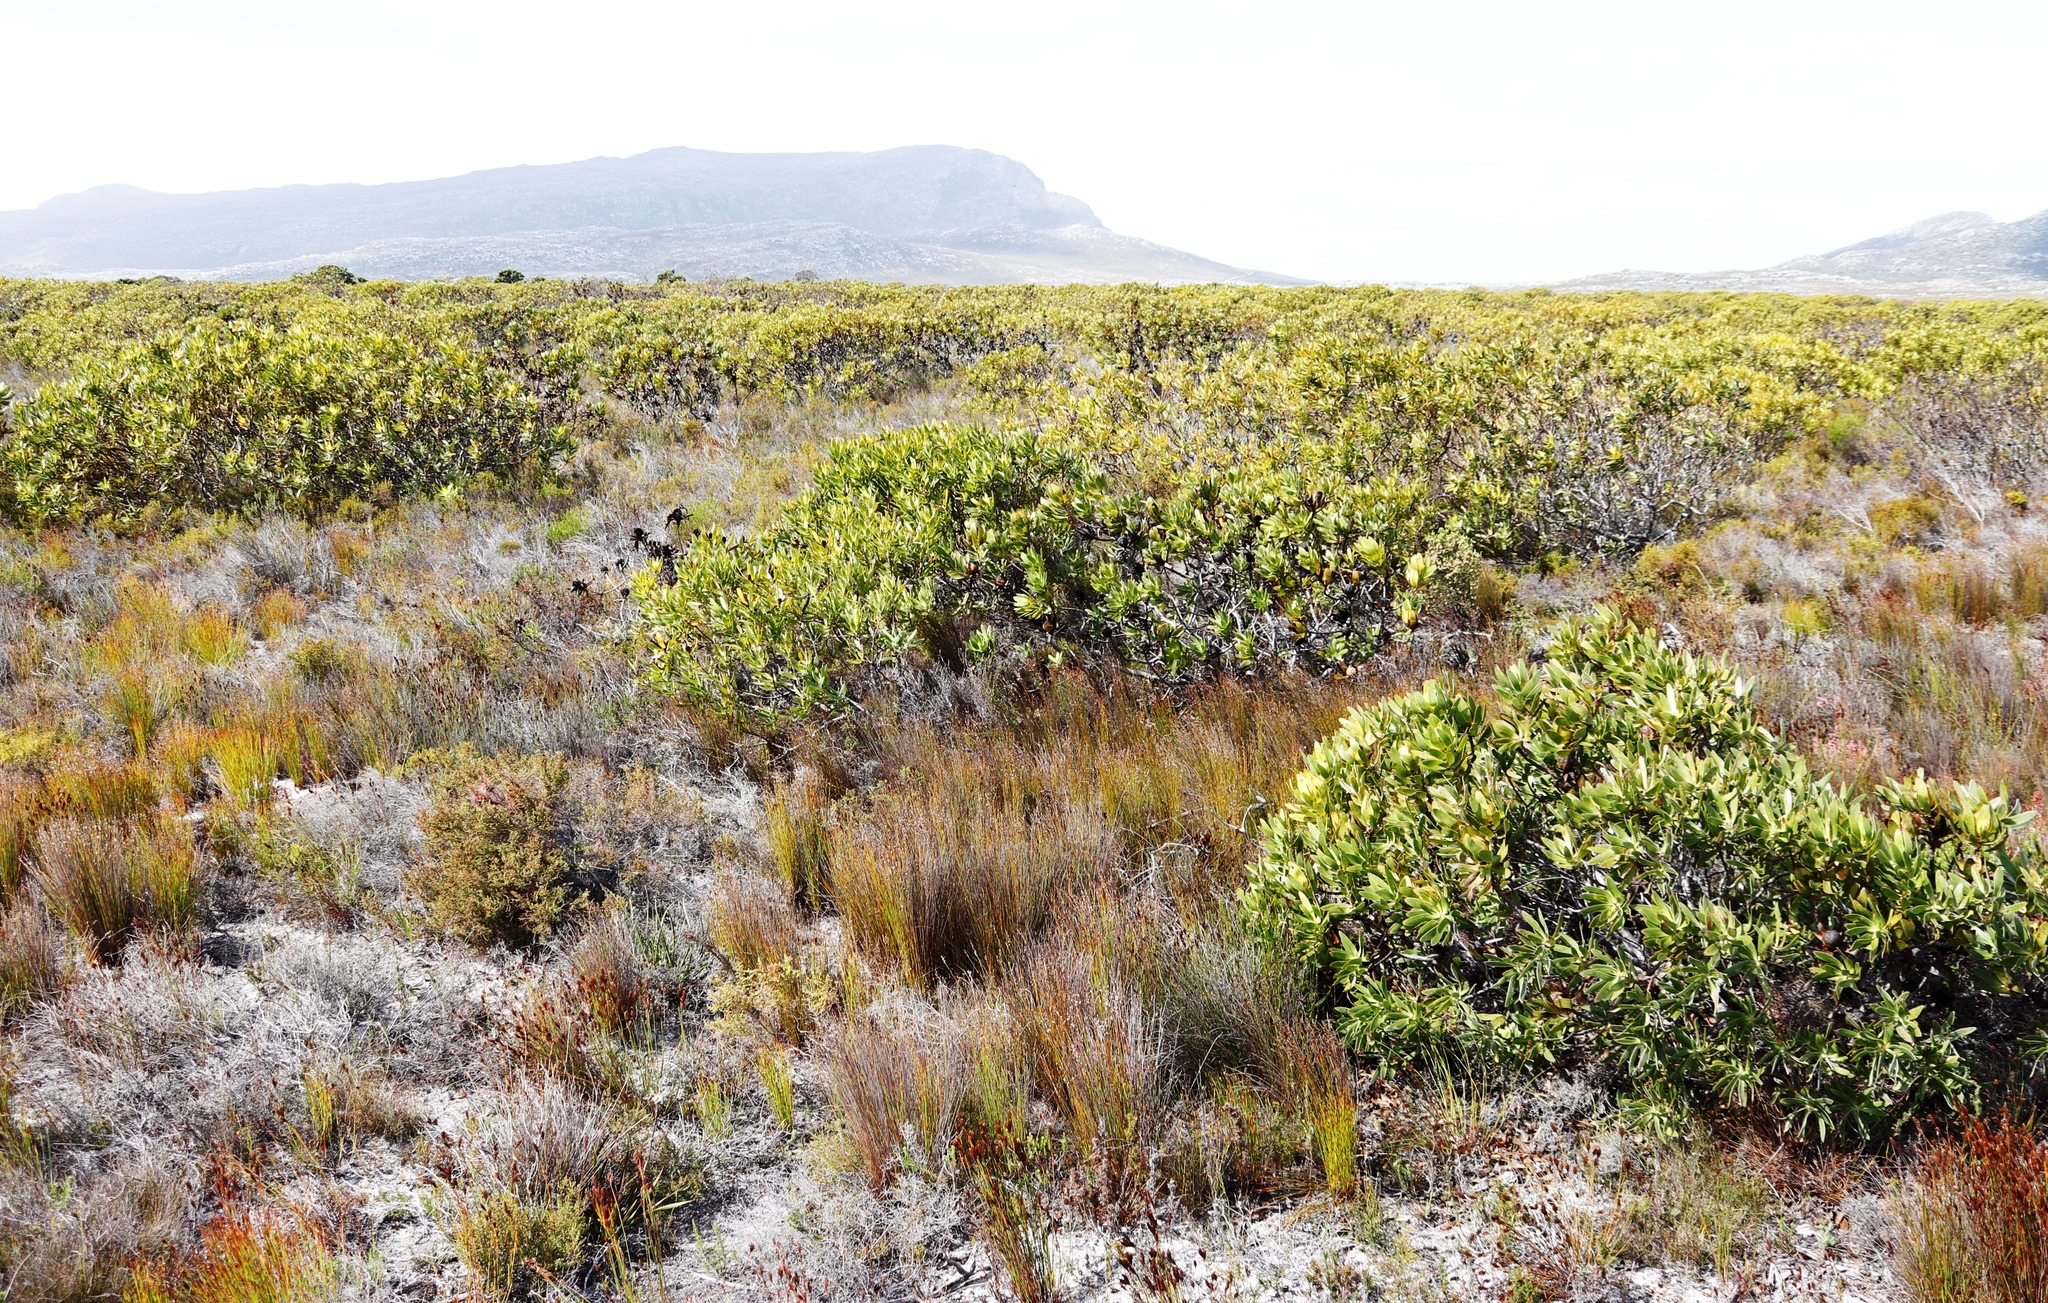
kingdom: Plantae
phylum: Tracheophyta
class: Magnoliopsida
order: Proteales
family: Proteaceae
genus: Leucadendron
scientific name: Leucadendron laureolum
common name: Golden sunshinebush
